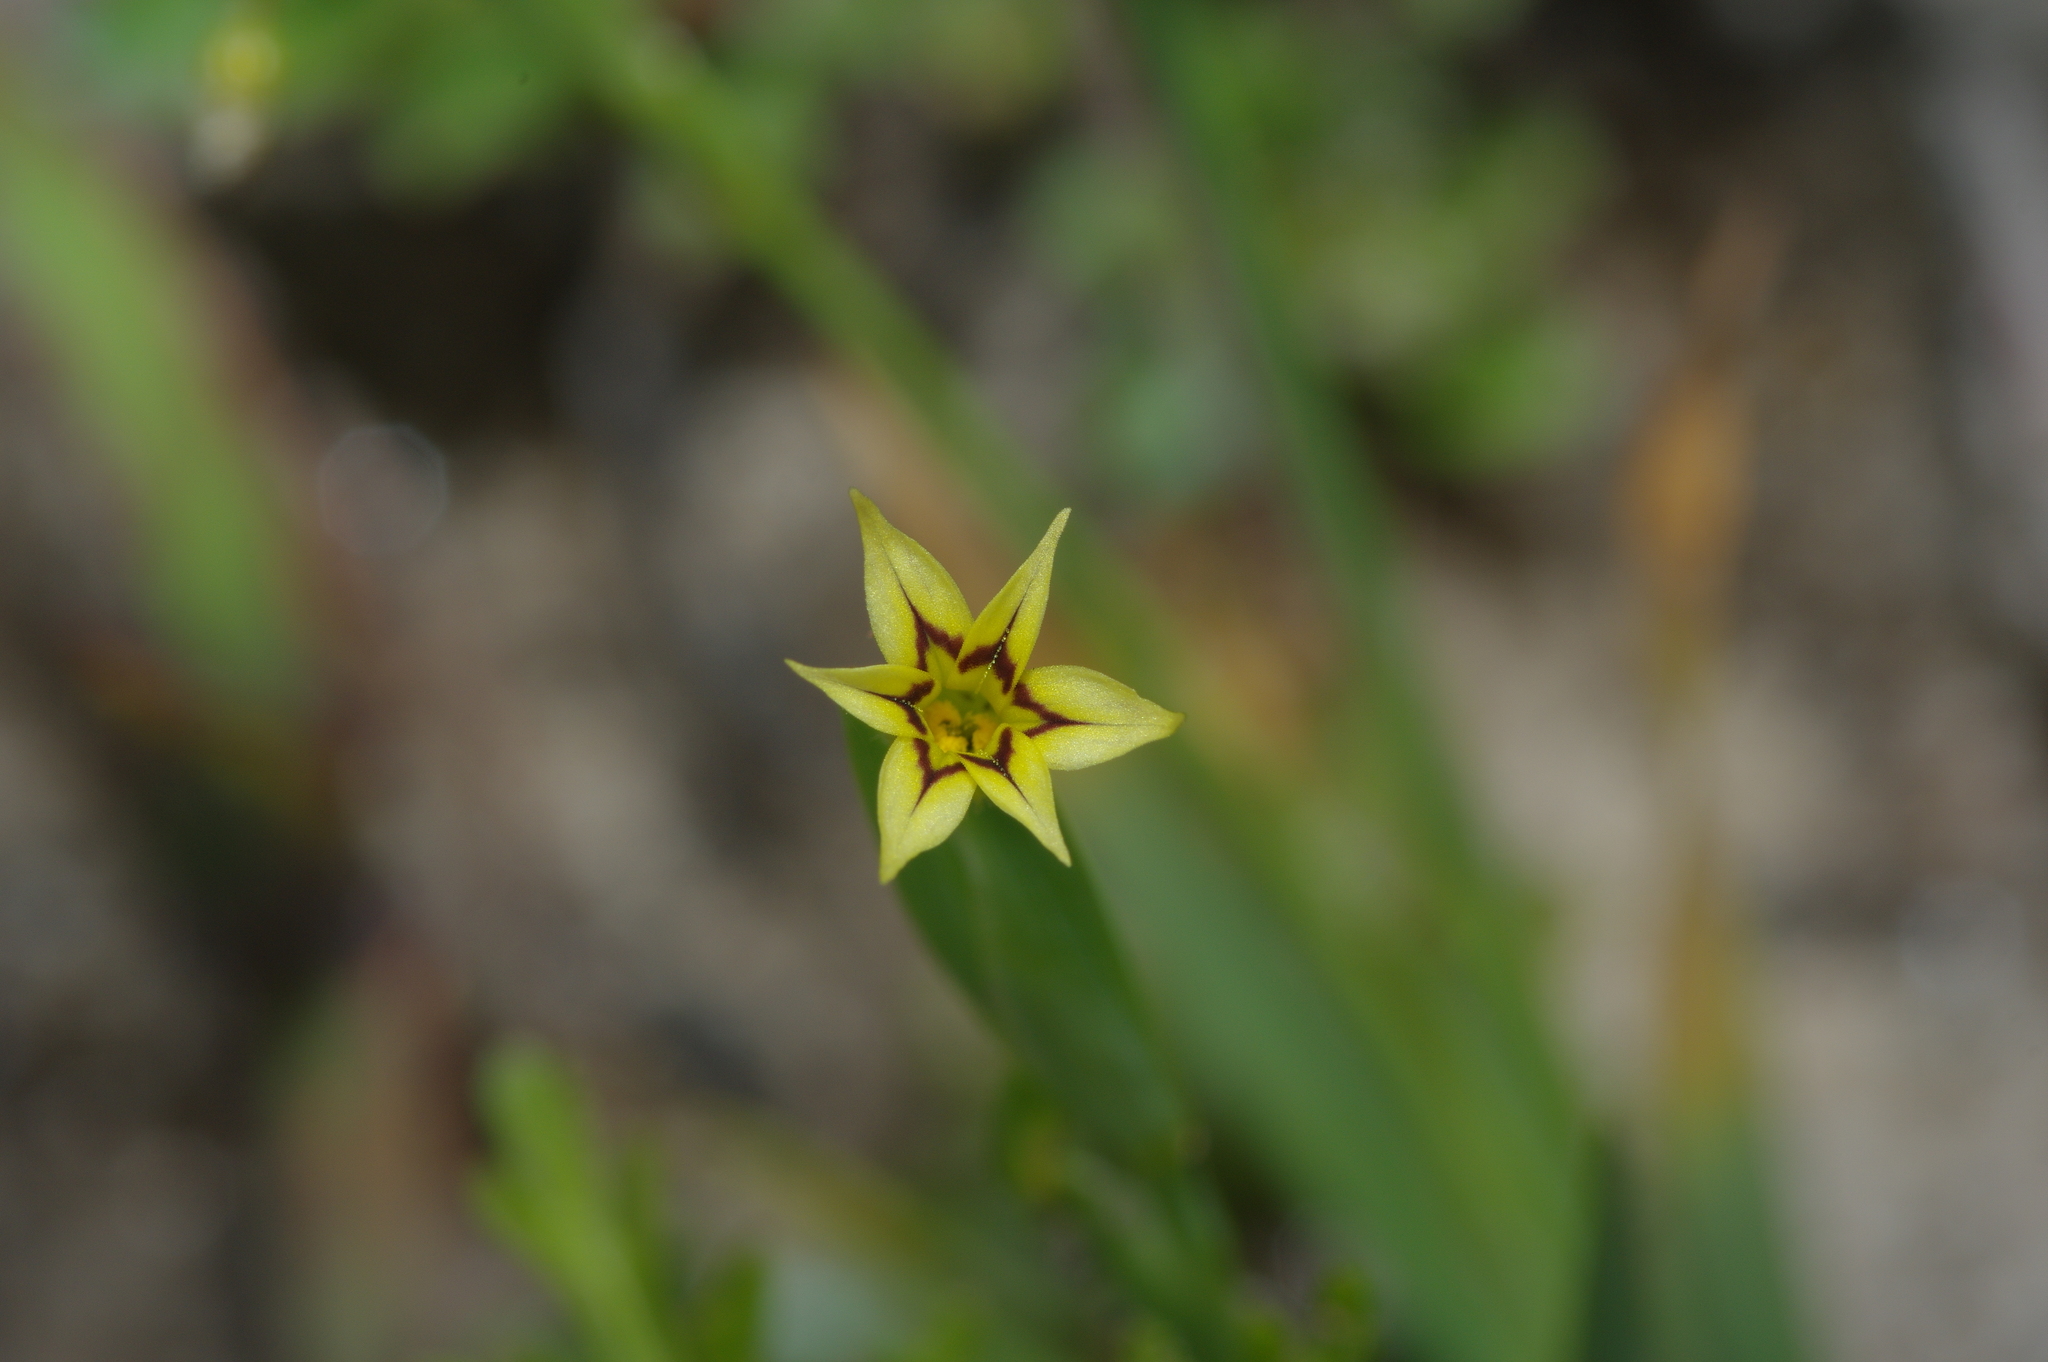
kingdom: Plantae
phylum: Tracheophyta
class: Liliopsida
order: Asparagales
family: Iridaceae
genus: Sisyrinchium
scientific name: Sisyrinchium micranthum
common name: Bermuda pigroot
